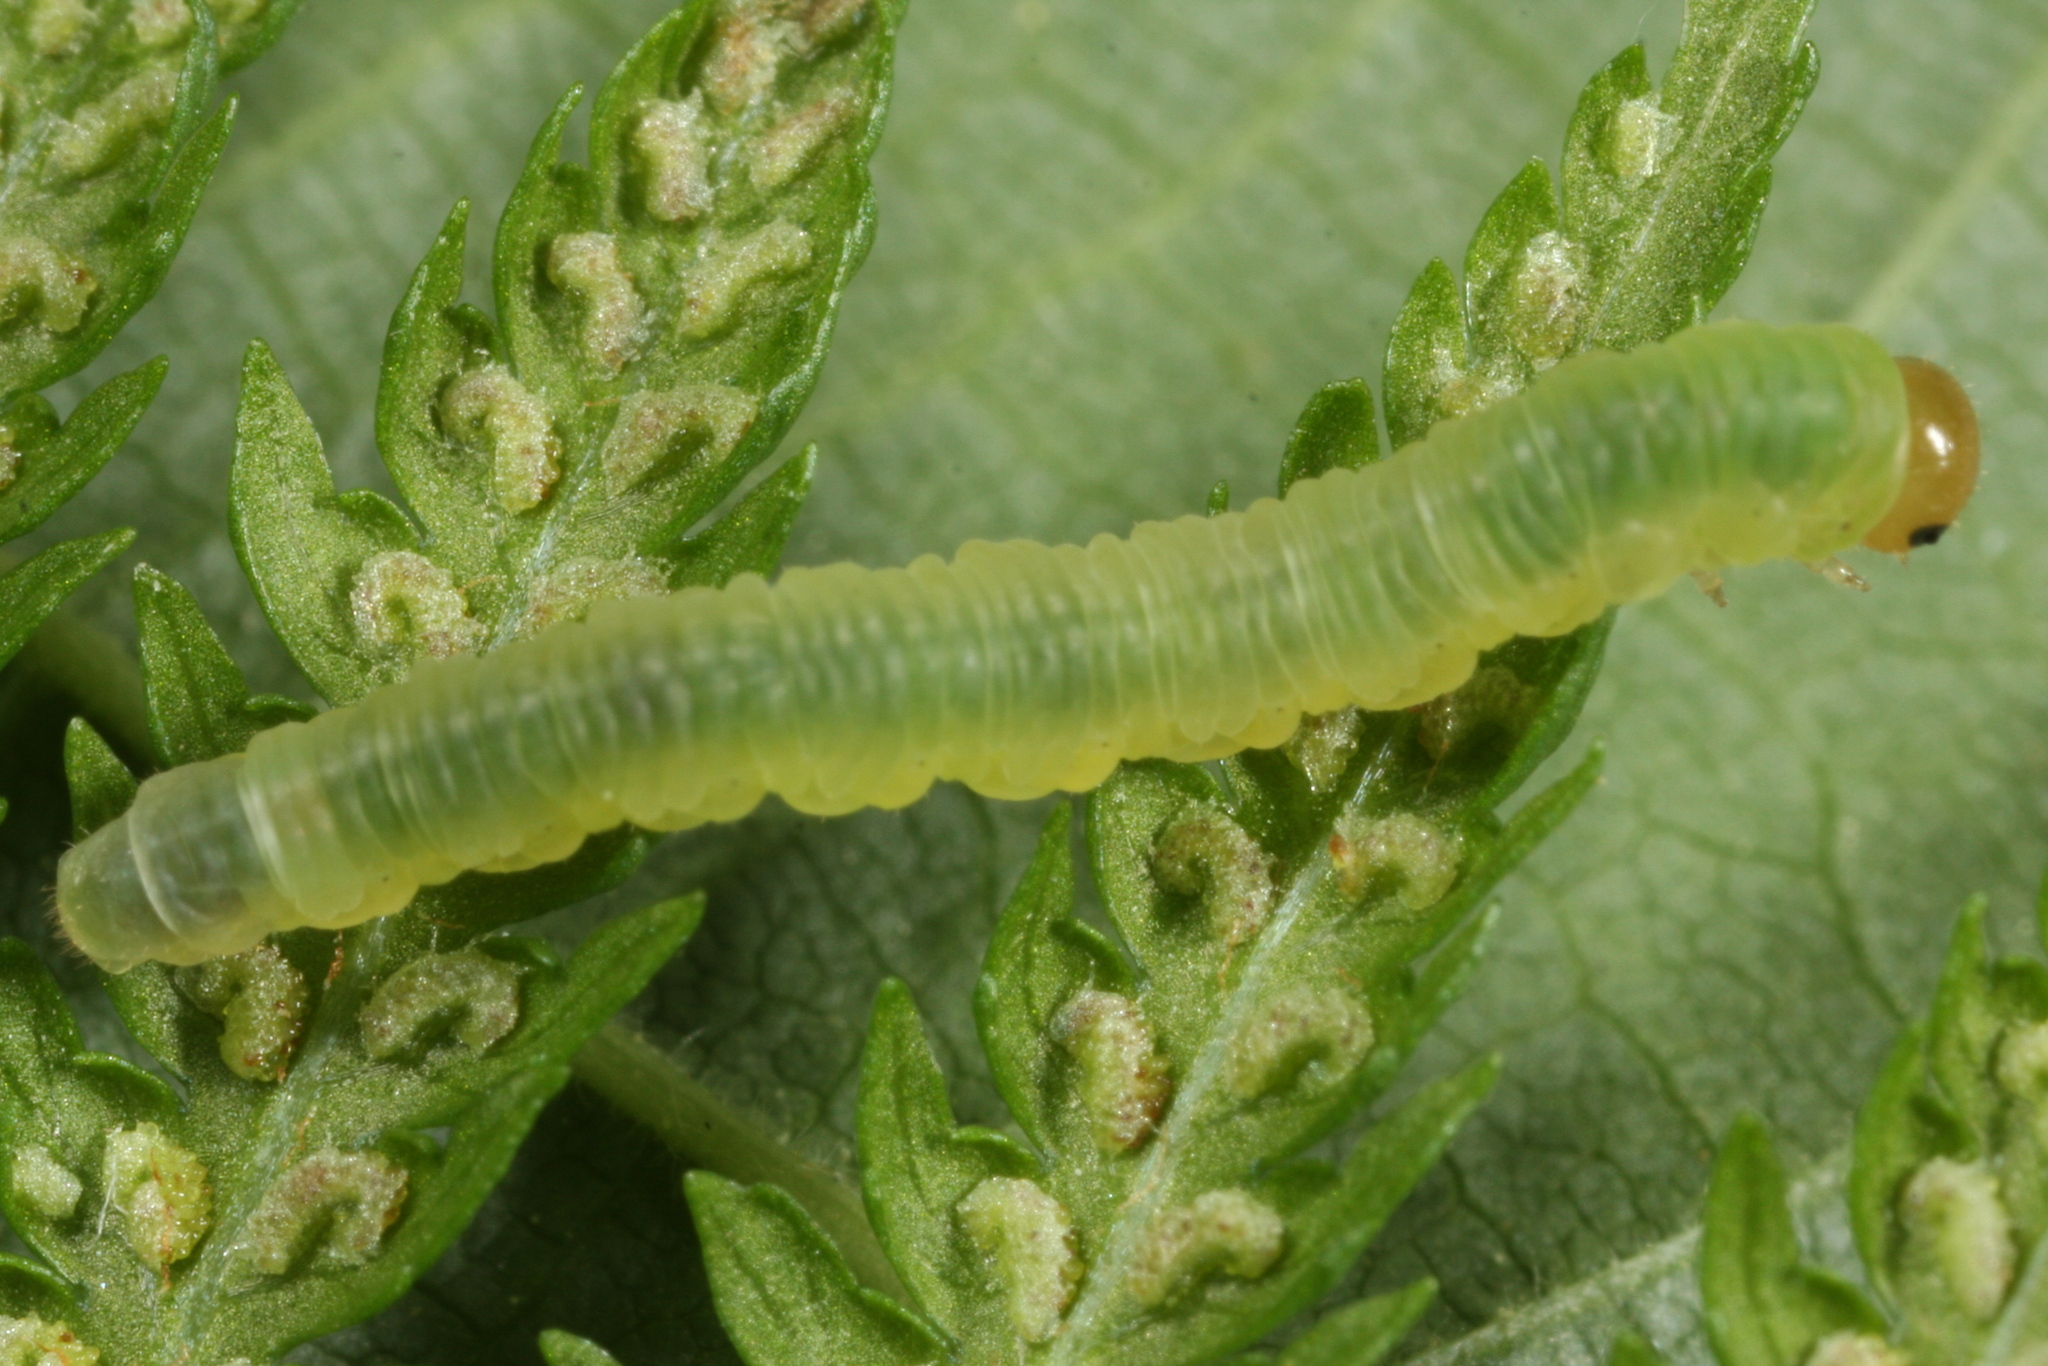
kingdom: Animalia
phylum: Arthropoda
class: Insecta
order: Hymenoptera
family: Tenthredinidae
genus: Strongylogaster
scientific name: Strongylogaster macula
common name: Tenthredid wasp
